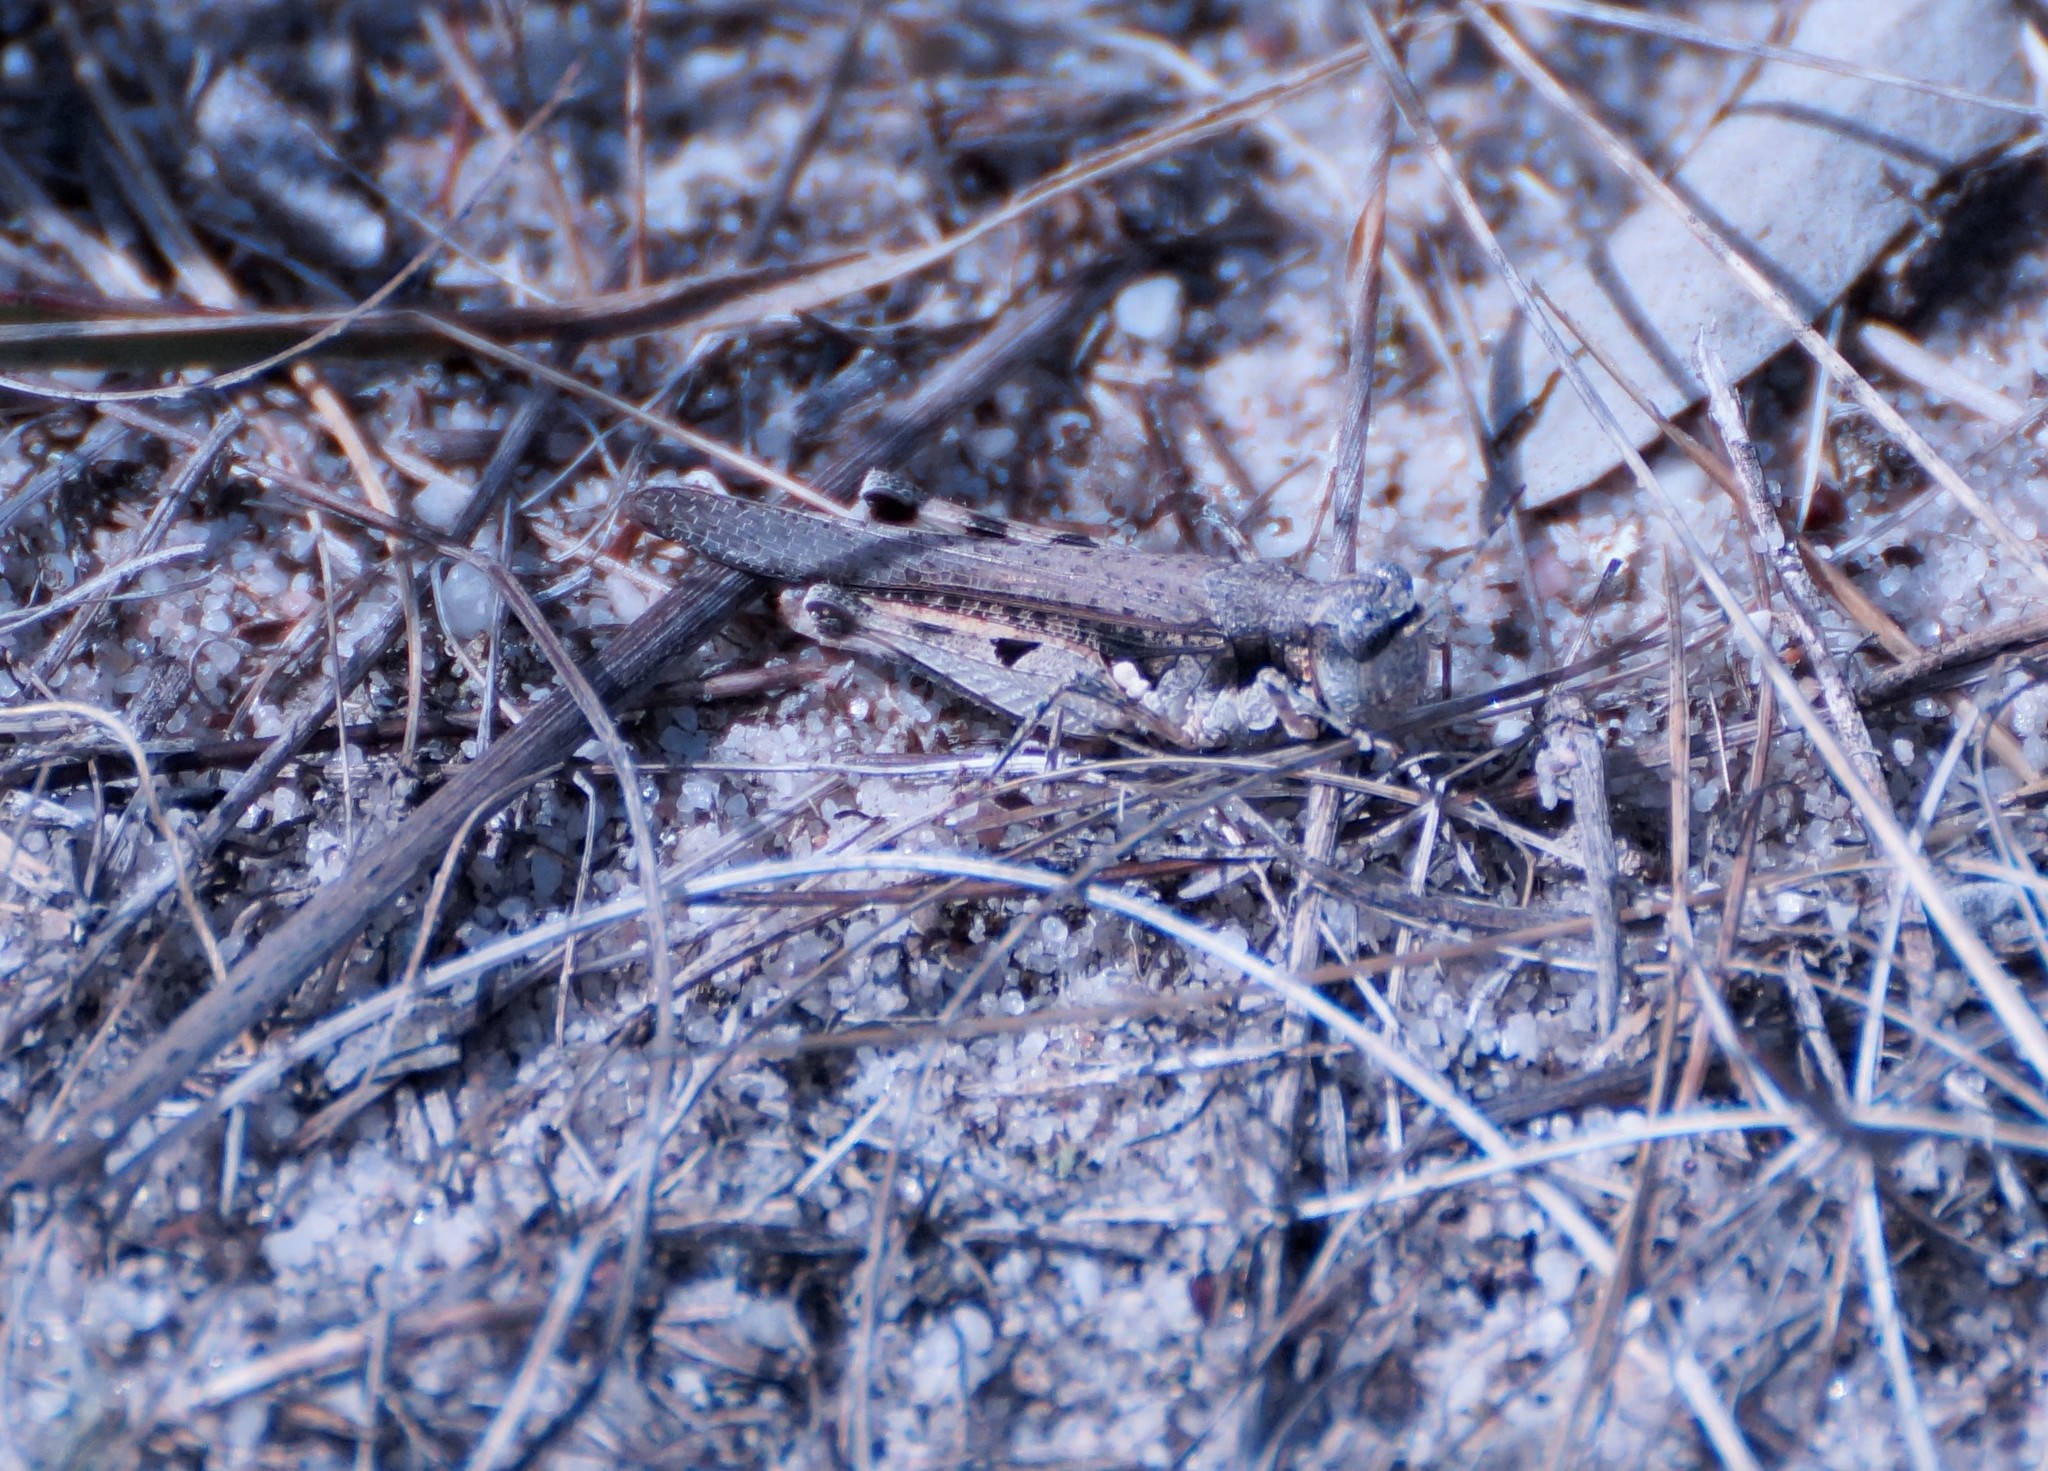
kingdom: Animalia
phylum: Arthropoda
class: Insecta
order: Orthoptera
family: Acrididae
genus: Pycnostictus
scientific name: Pycnostictus seriatus
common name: Common bandwing
